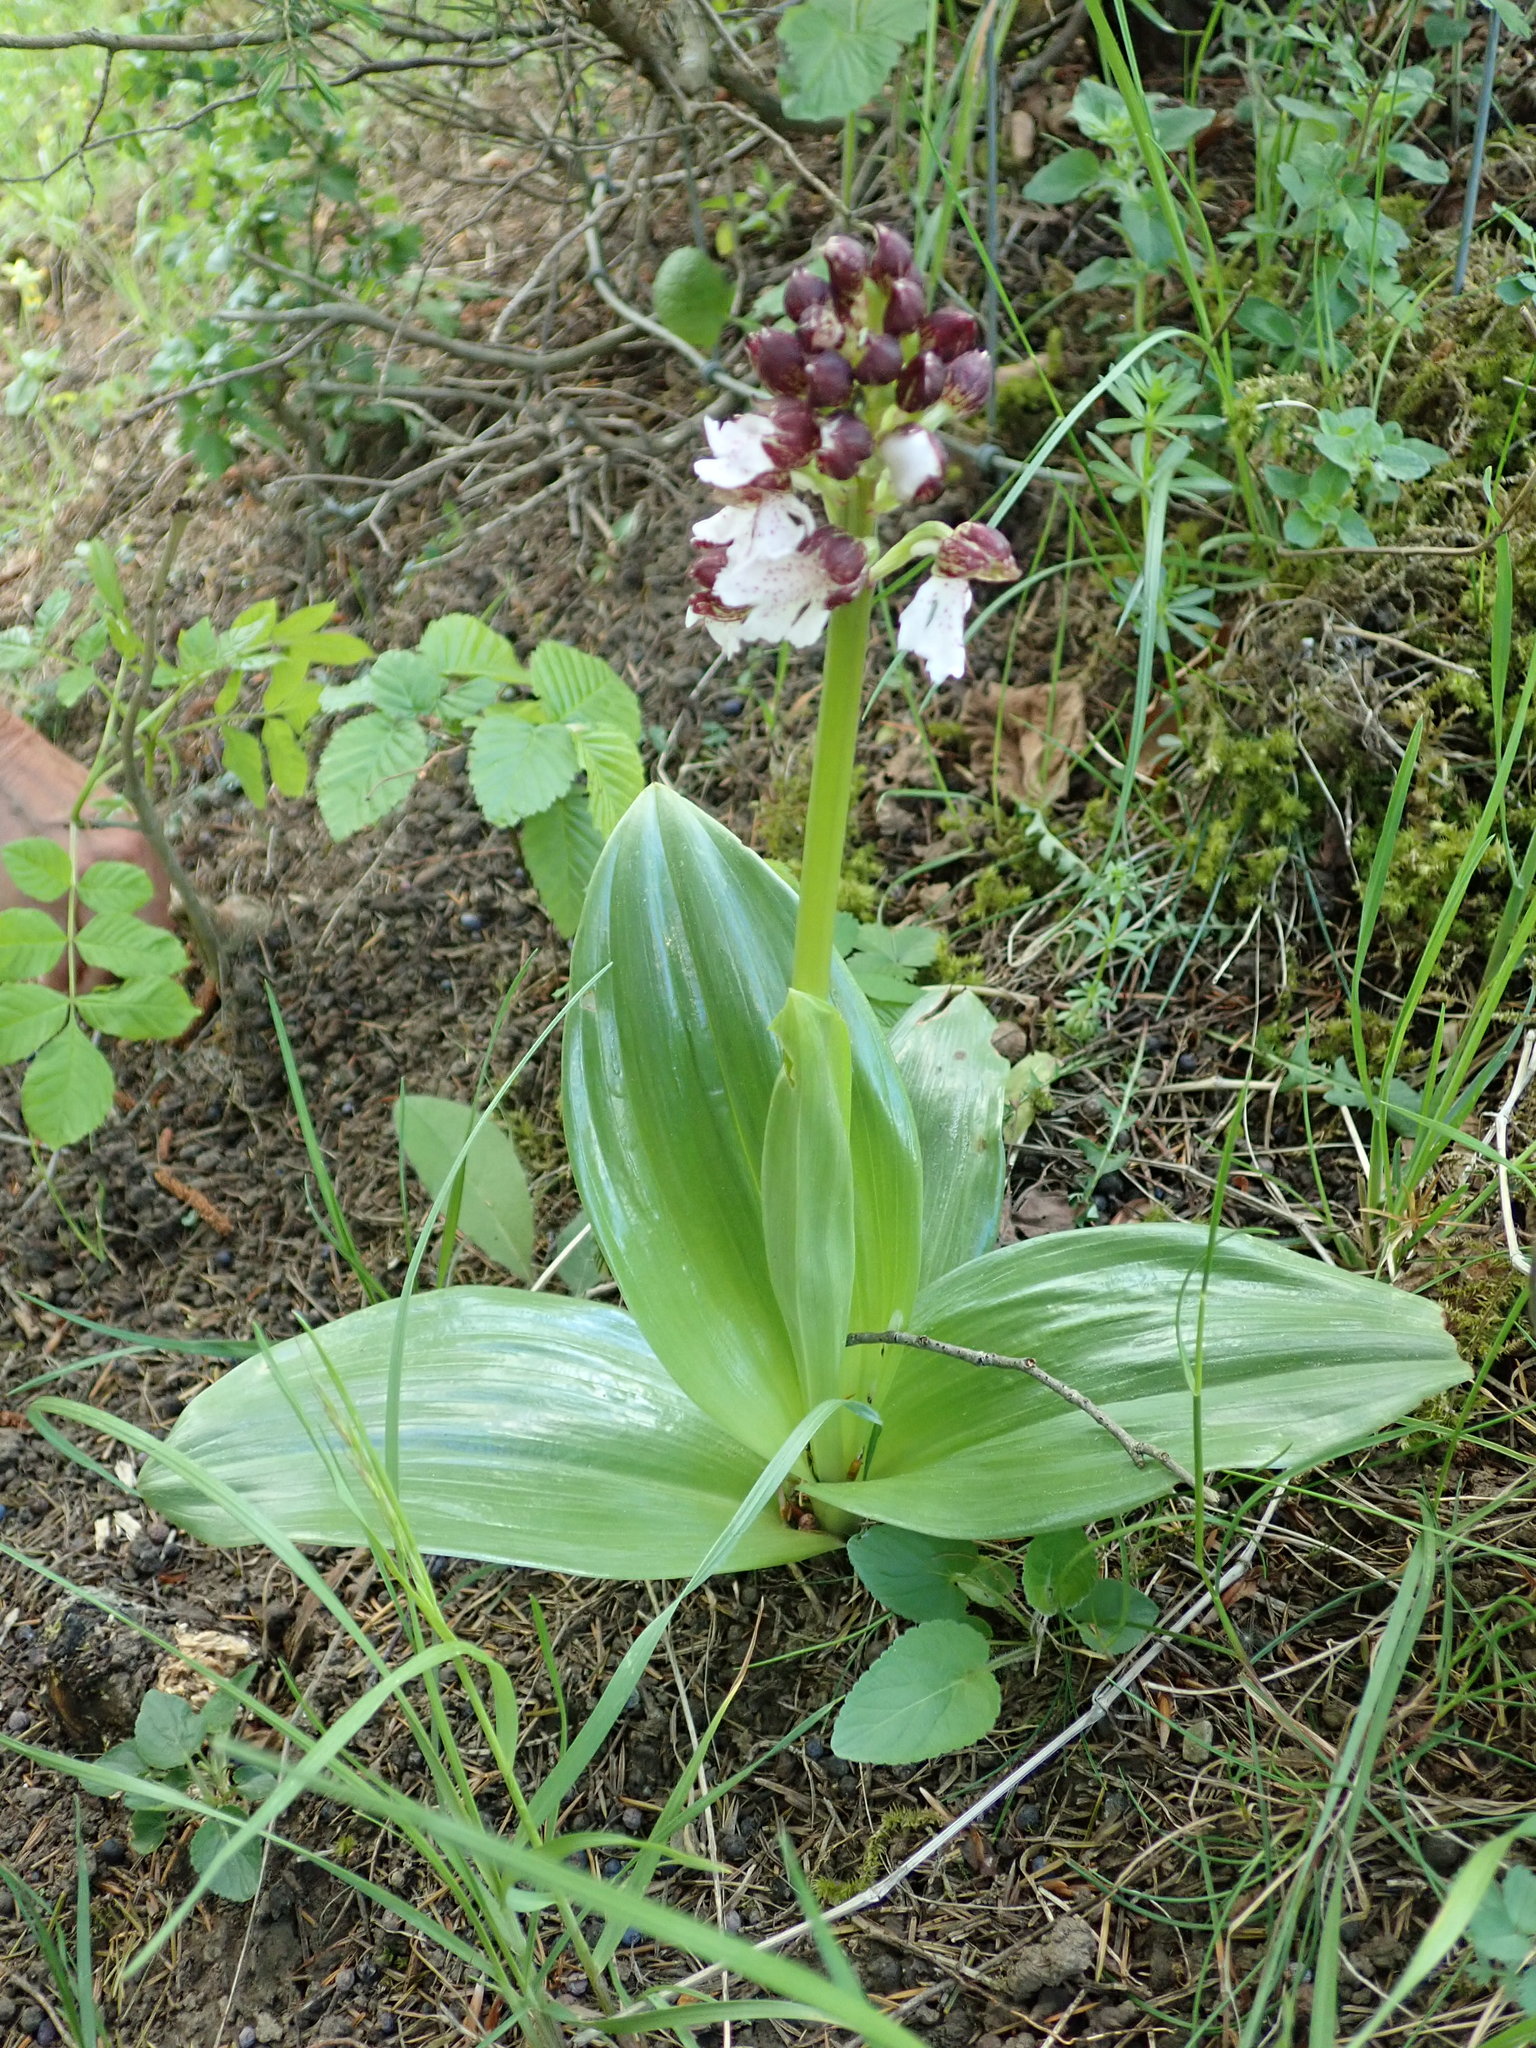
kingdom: Plantae
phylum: Tracheophyta
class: Liliopsida
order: Asparagales
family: Orchidaceae
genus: Orchis
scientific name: Orchis purpurea
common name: Lady orchid
